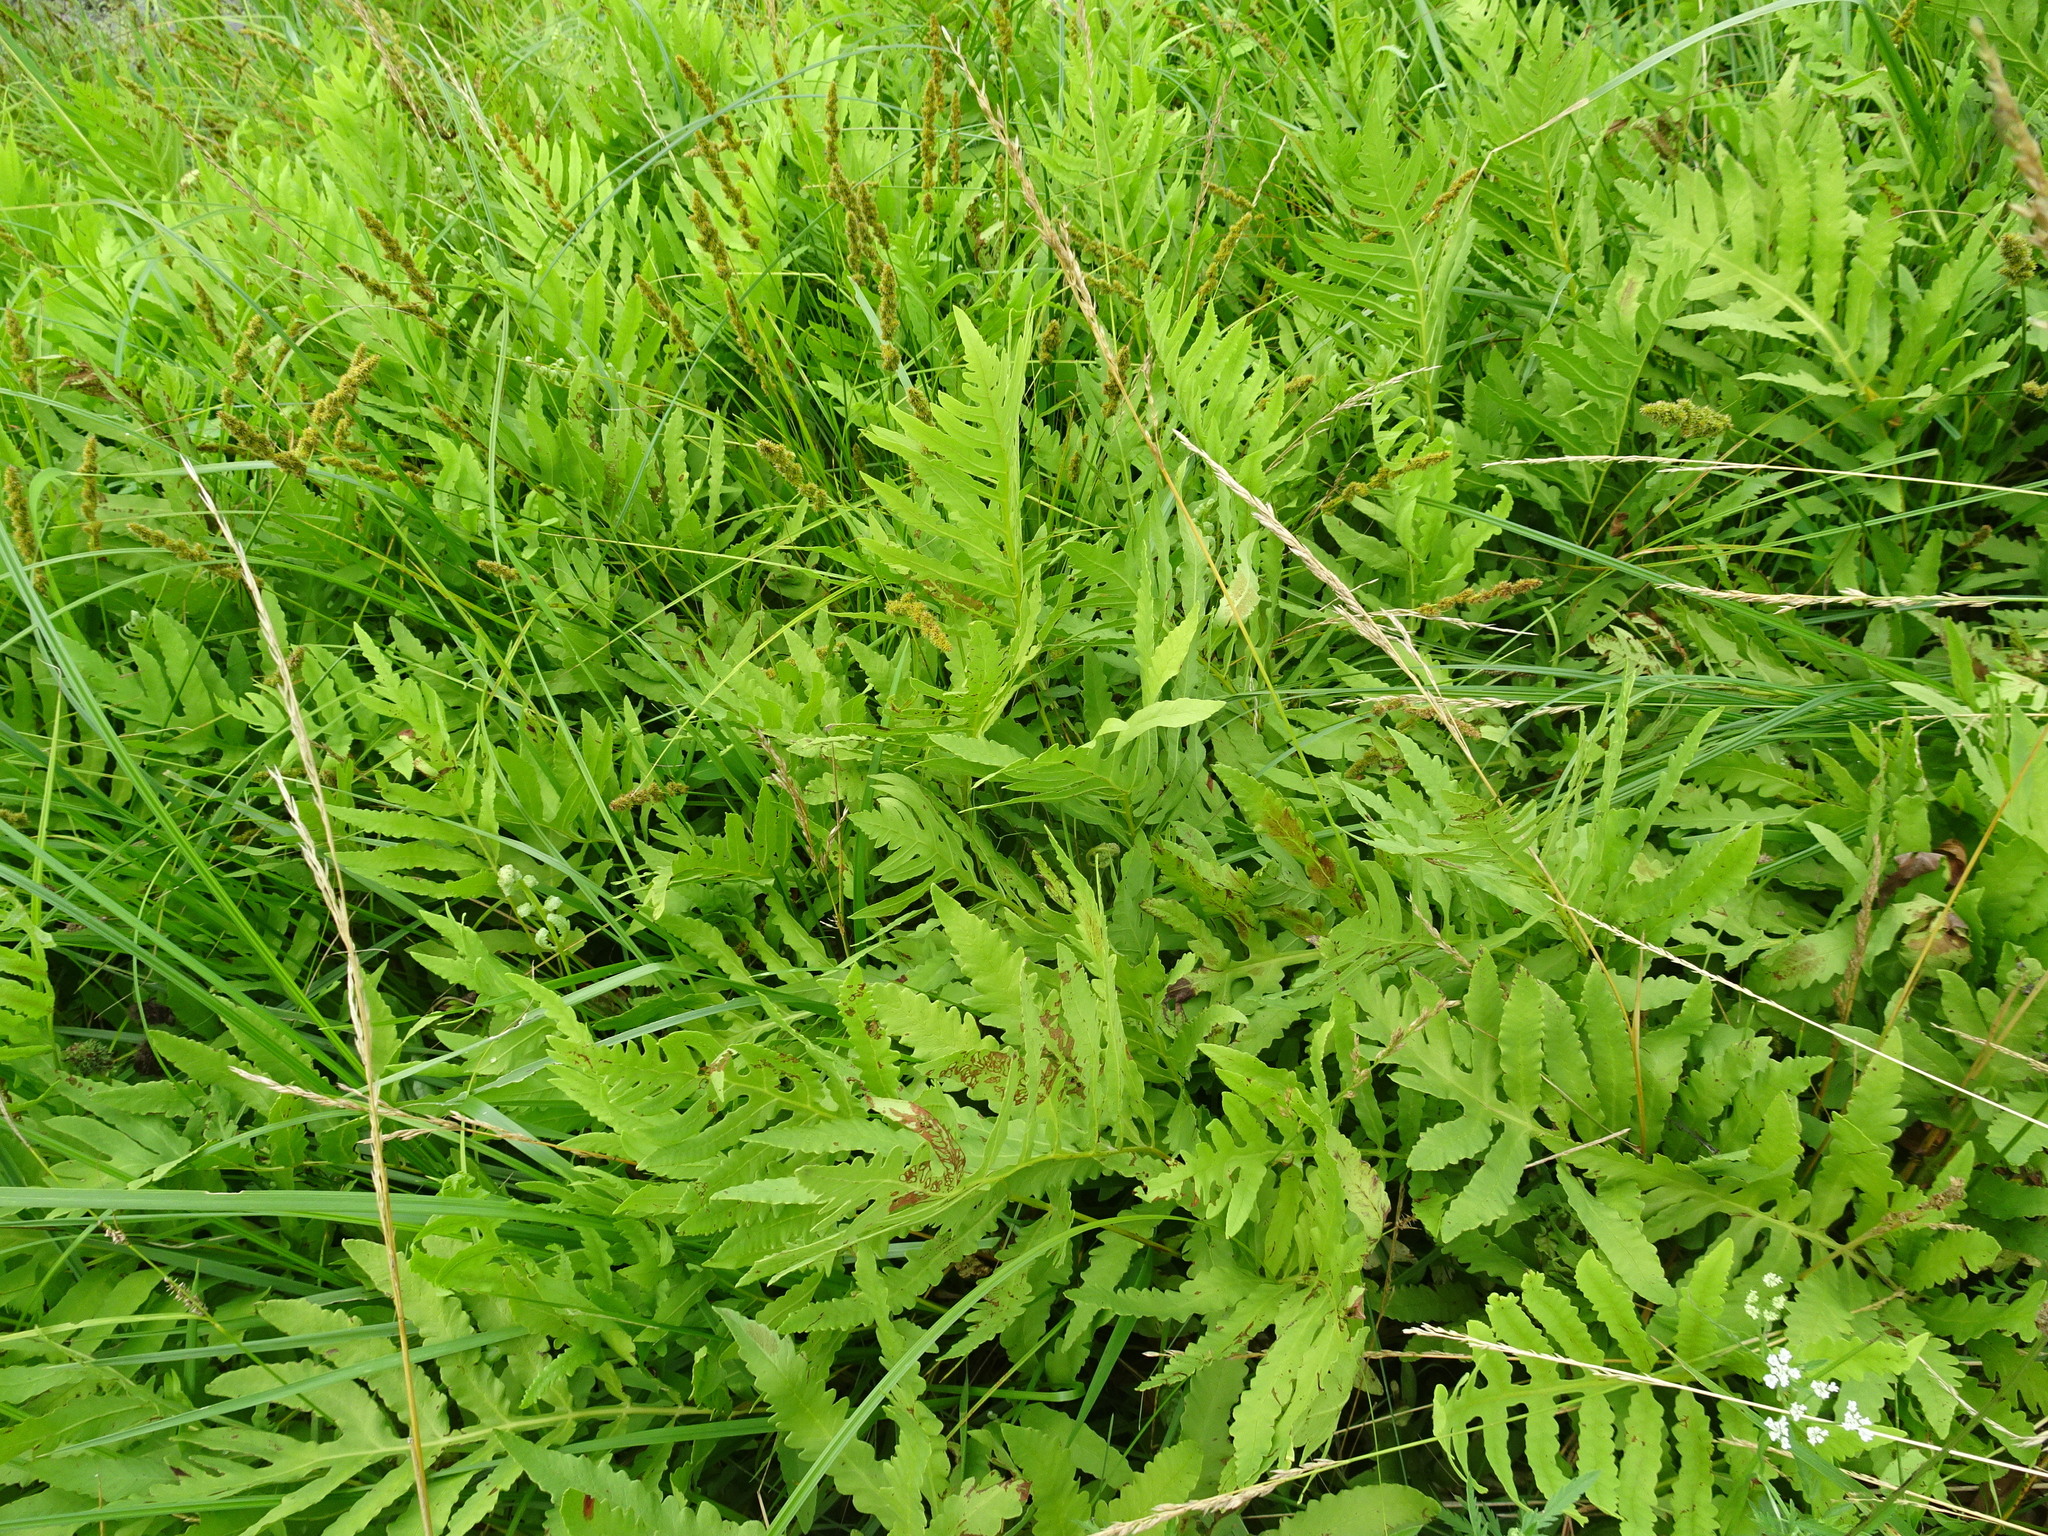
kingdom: Plantae
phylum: Tracheophyta
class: Polypodiopsida
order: Polypodiales
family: Onocleaceae
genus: Onoclea
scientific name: Onoclea sensibilis
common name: Sensitive fern
